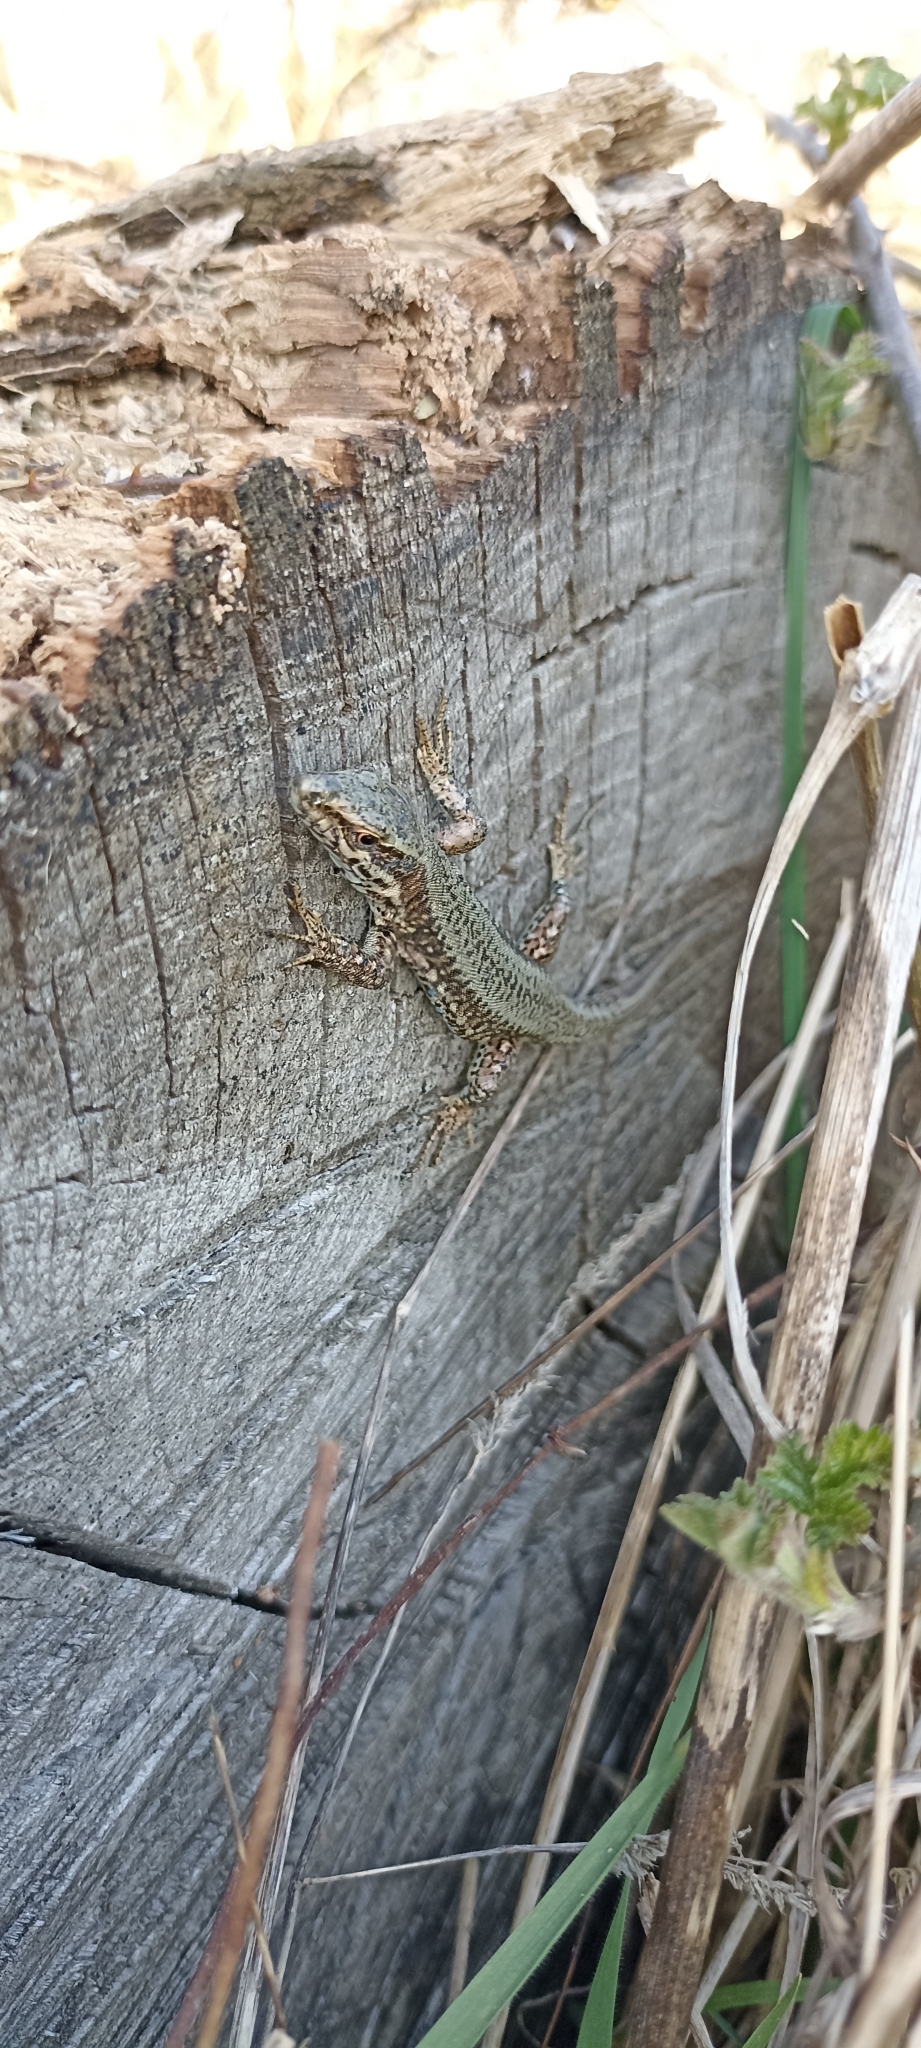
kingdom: Animalia
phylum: Chordata
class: Squamata
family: Lacertidae
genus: Podarcis
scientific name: Podarcis muralis
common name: Common wall lizard
